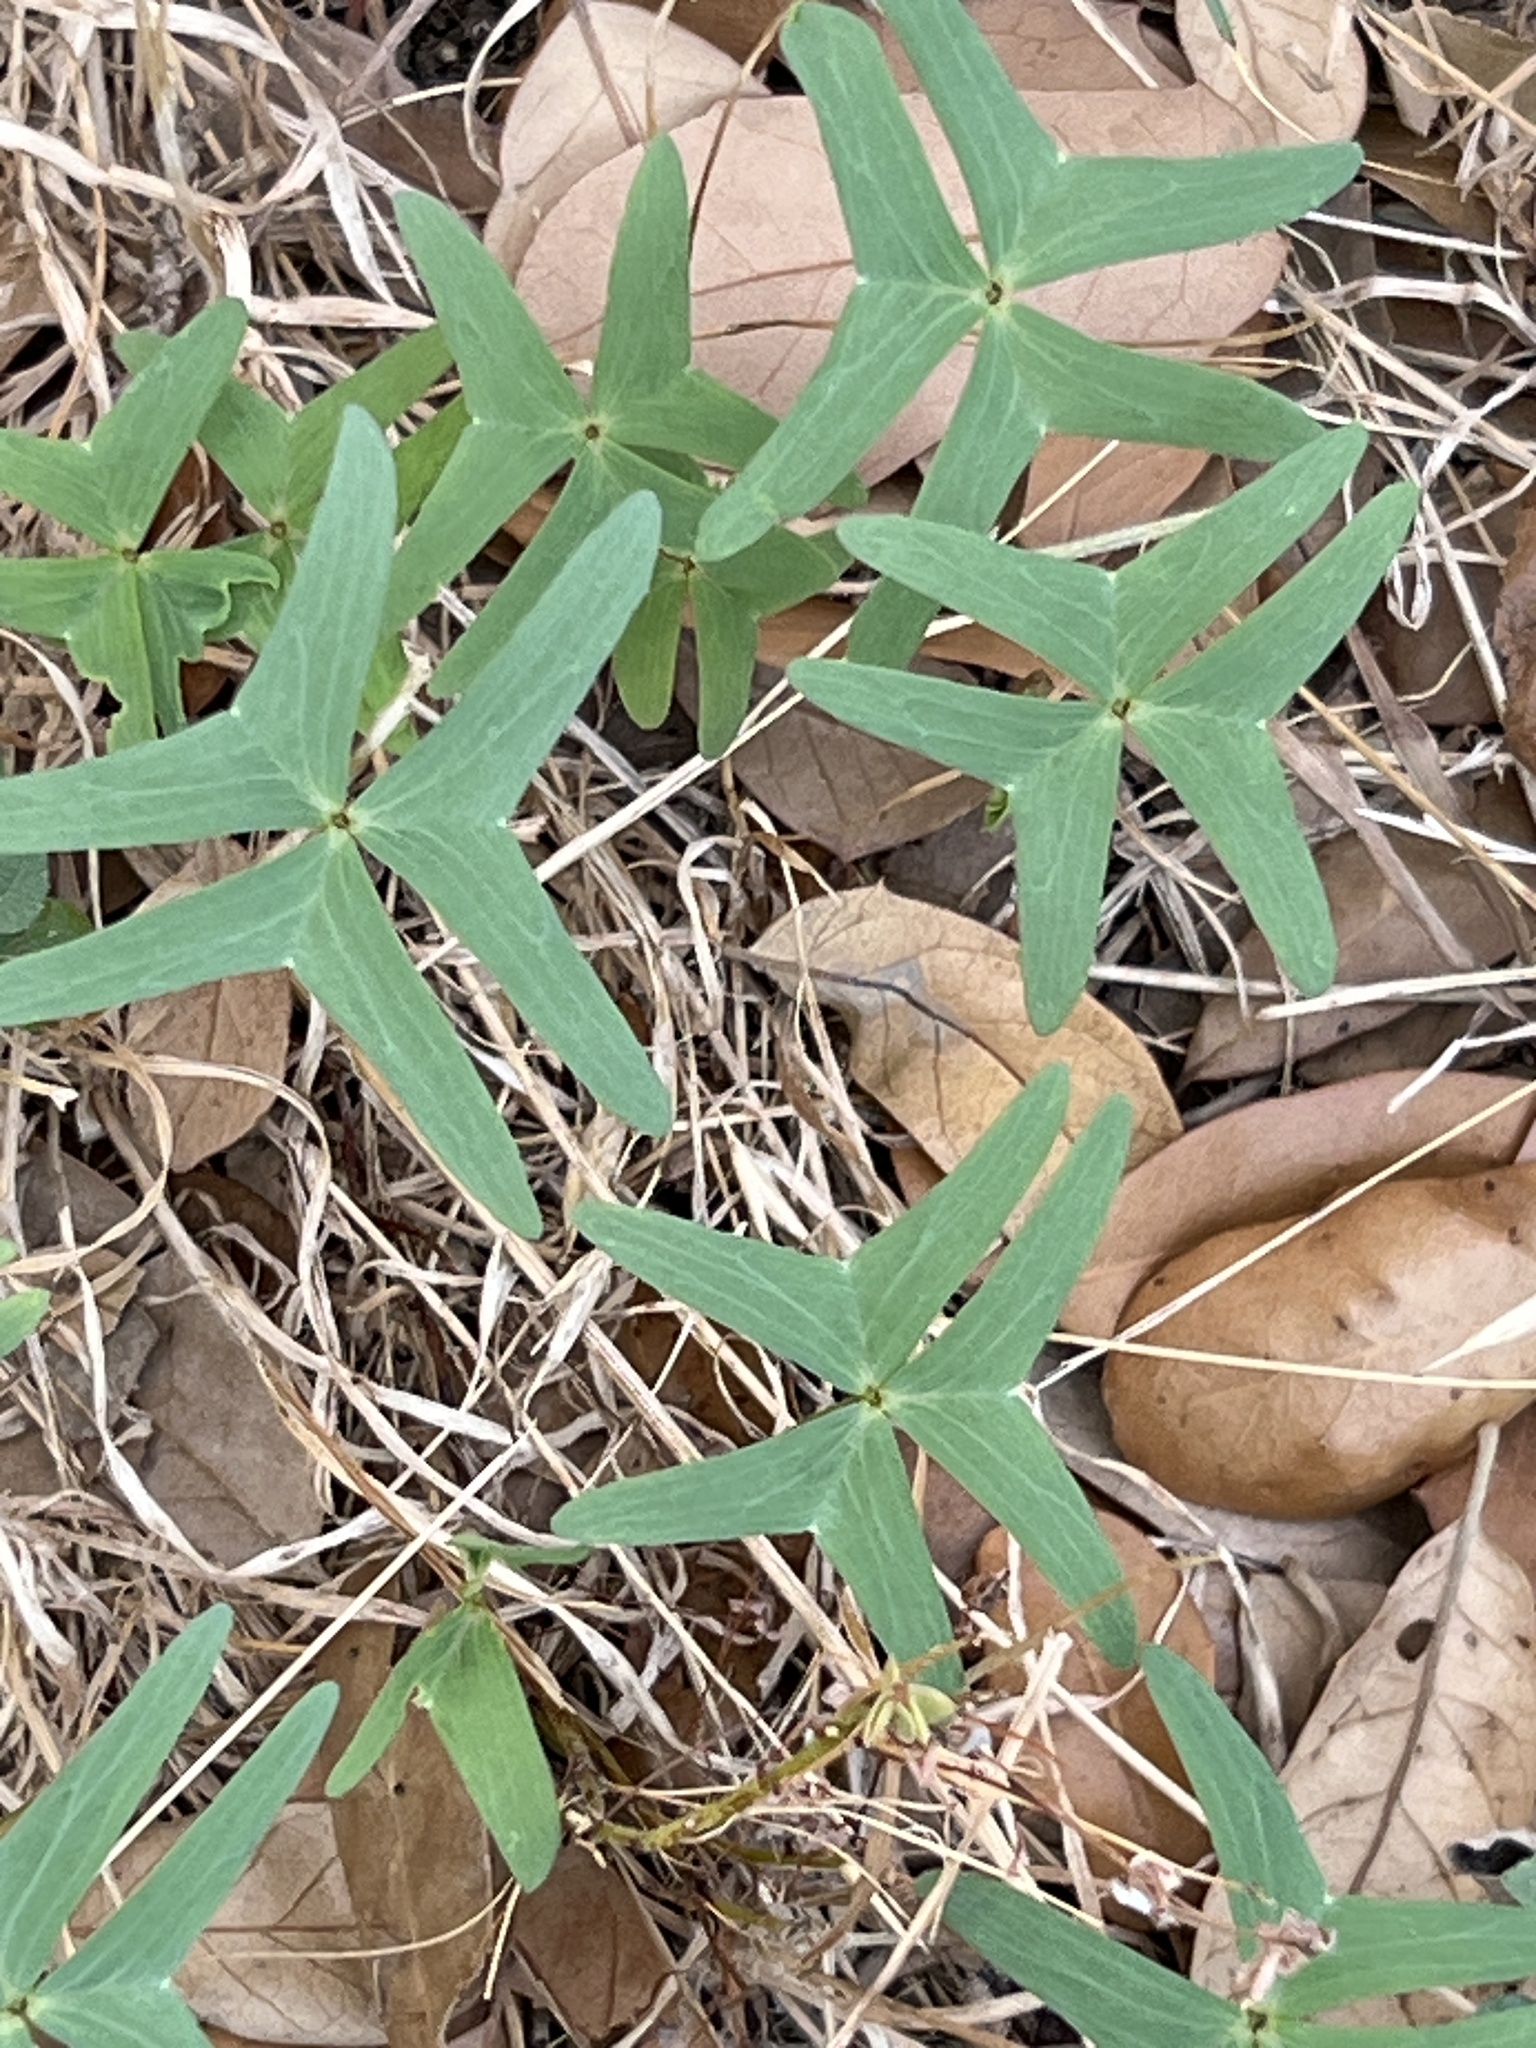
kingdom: Plantae
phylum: Tracheophyta
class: Magnoliopsida
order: Oxalidales
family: Oxalidaceae
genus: Oxalis
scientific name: Oxalis drummondii
